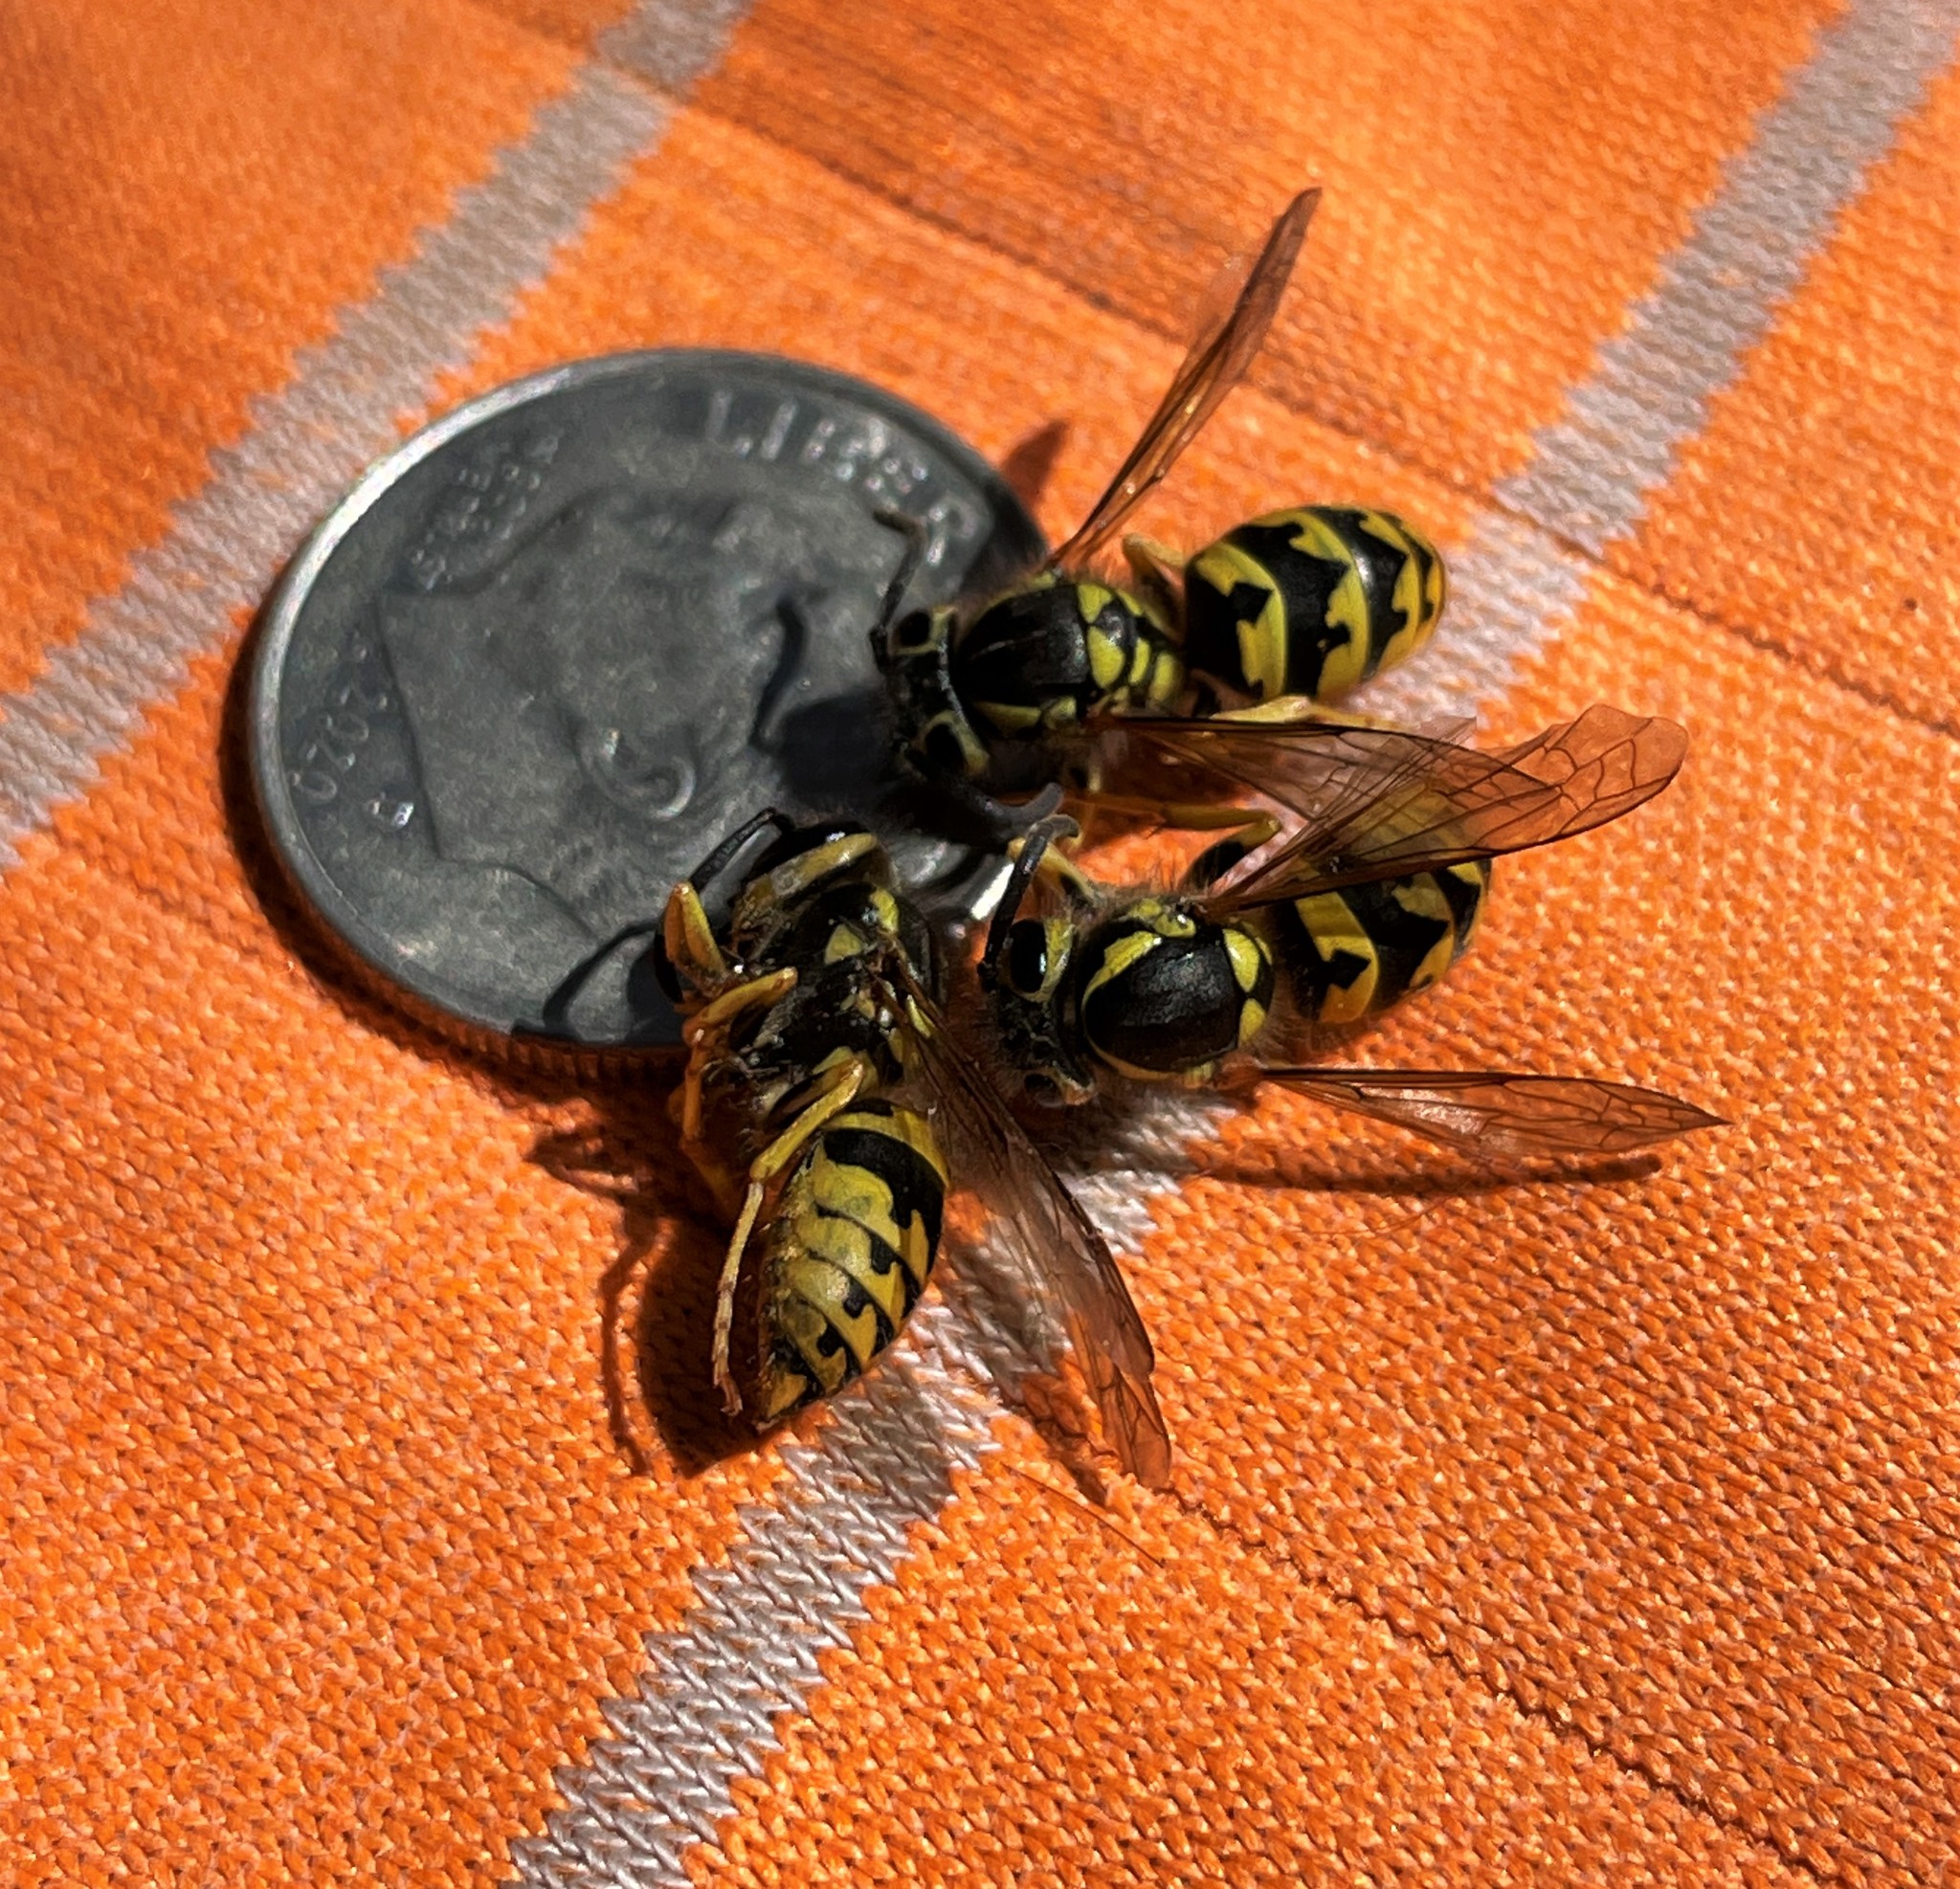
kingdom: Animalia
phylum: Arthropoda
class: Insecta
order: Hymenoptera
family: Vespidae
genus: Vespula
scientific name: Vespula pensylvanica
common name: Western yellowjacket
